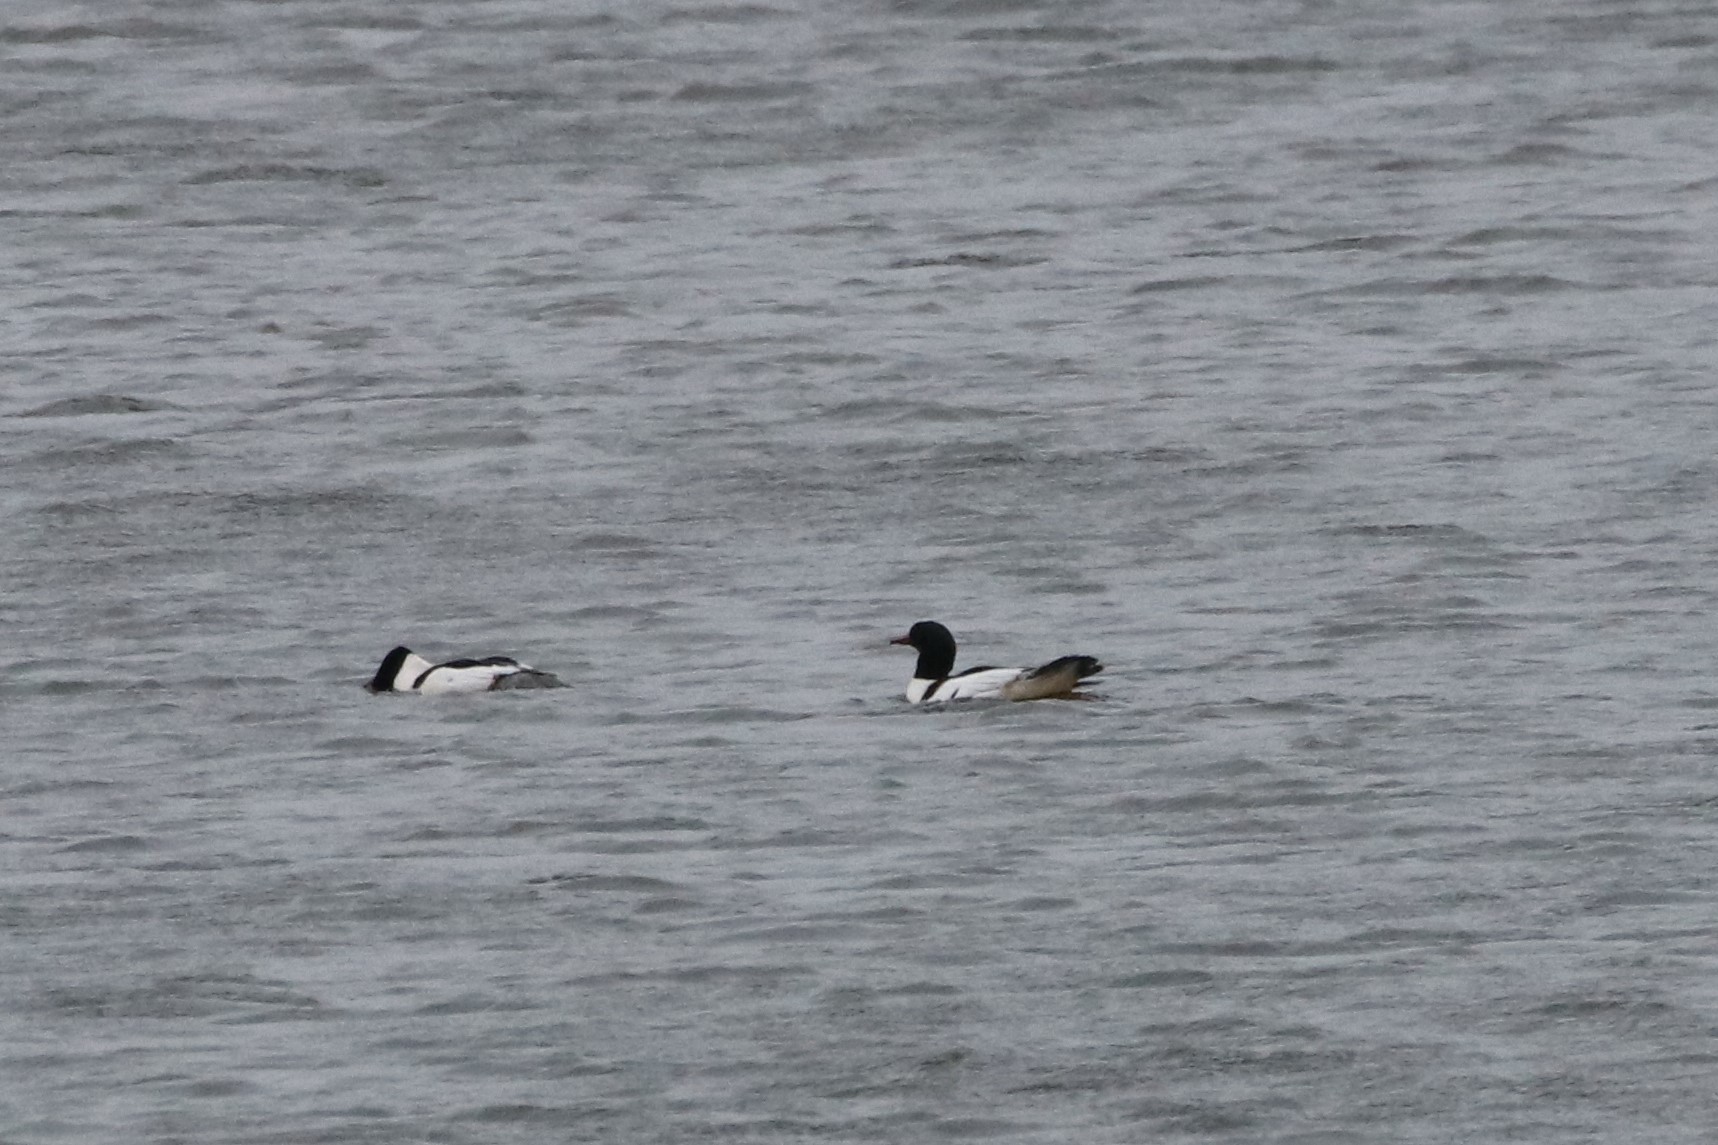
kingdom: Animalia
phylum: Chordata
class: Aves
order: Anseriformes
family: Anatidae
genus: Mergus
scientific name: Mergus merganser
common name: Common merganser
